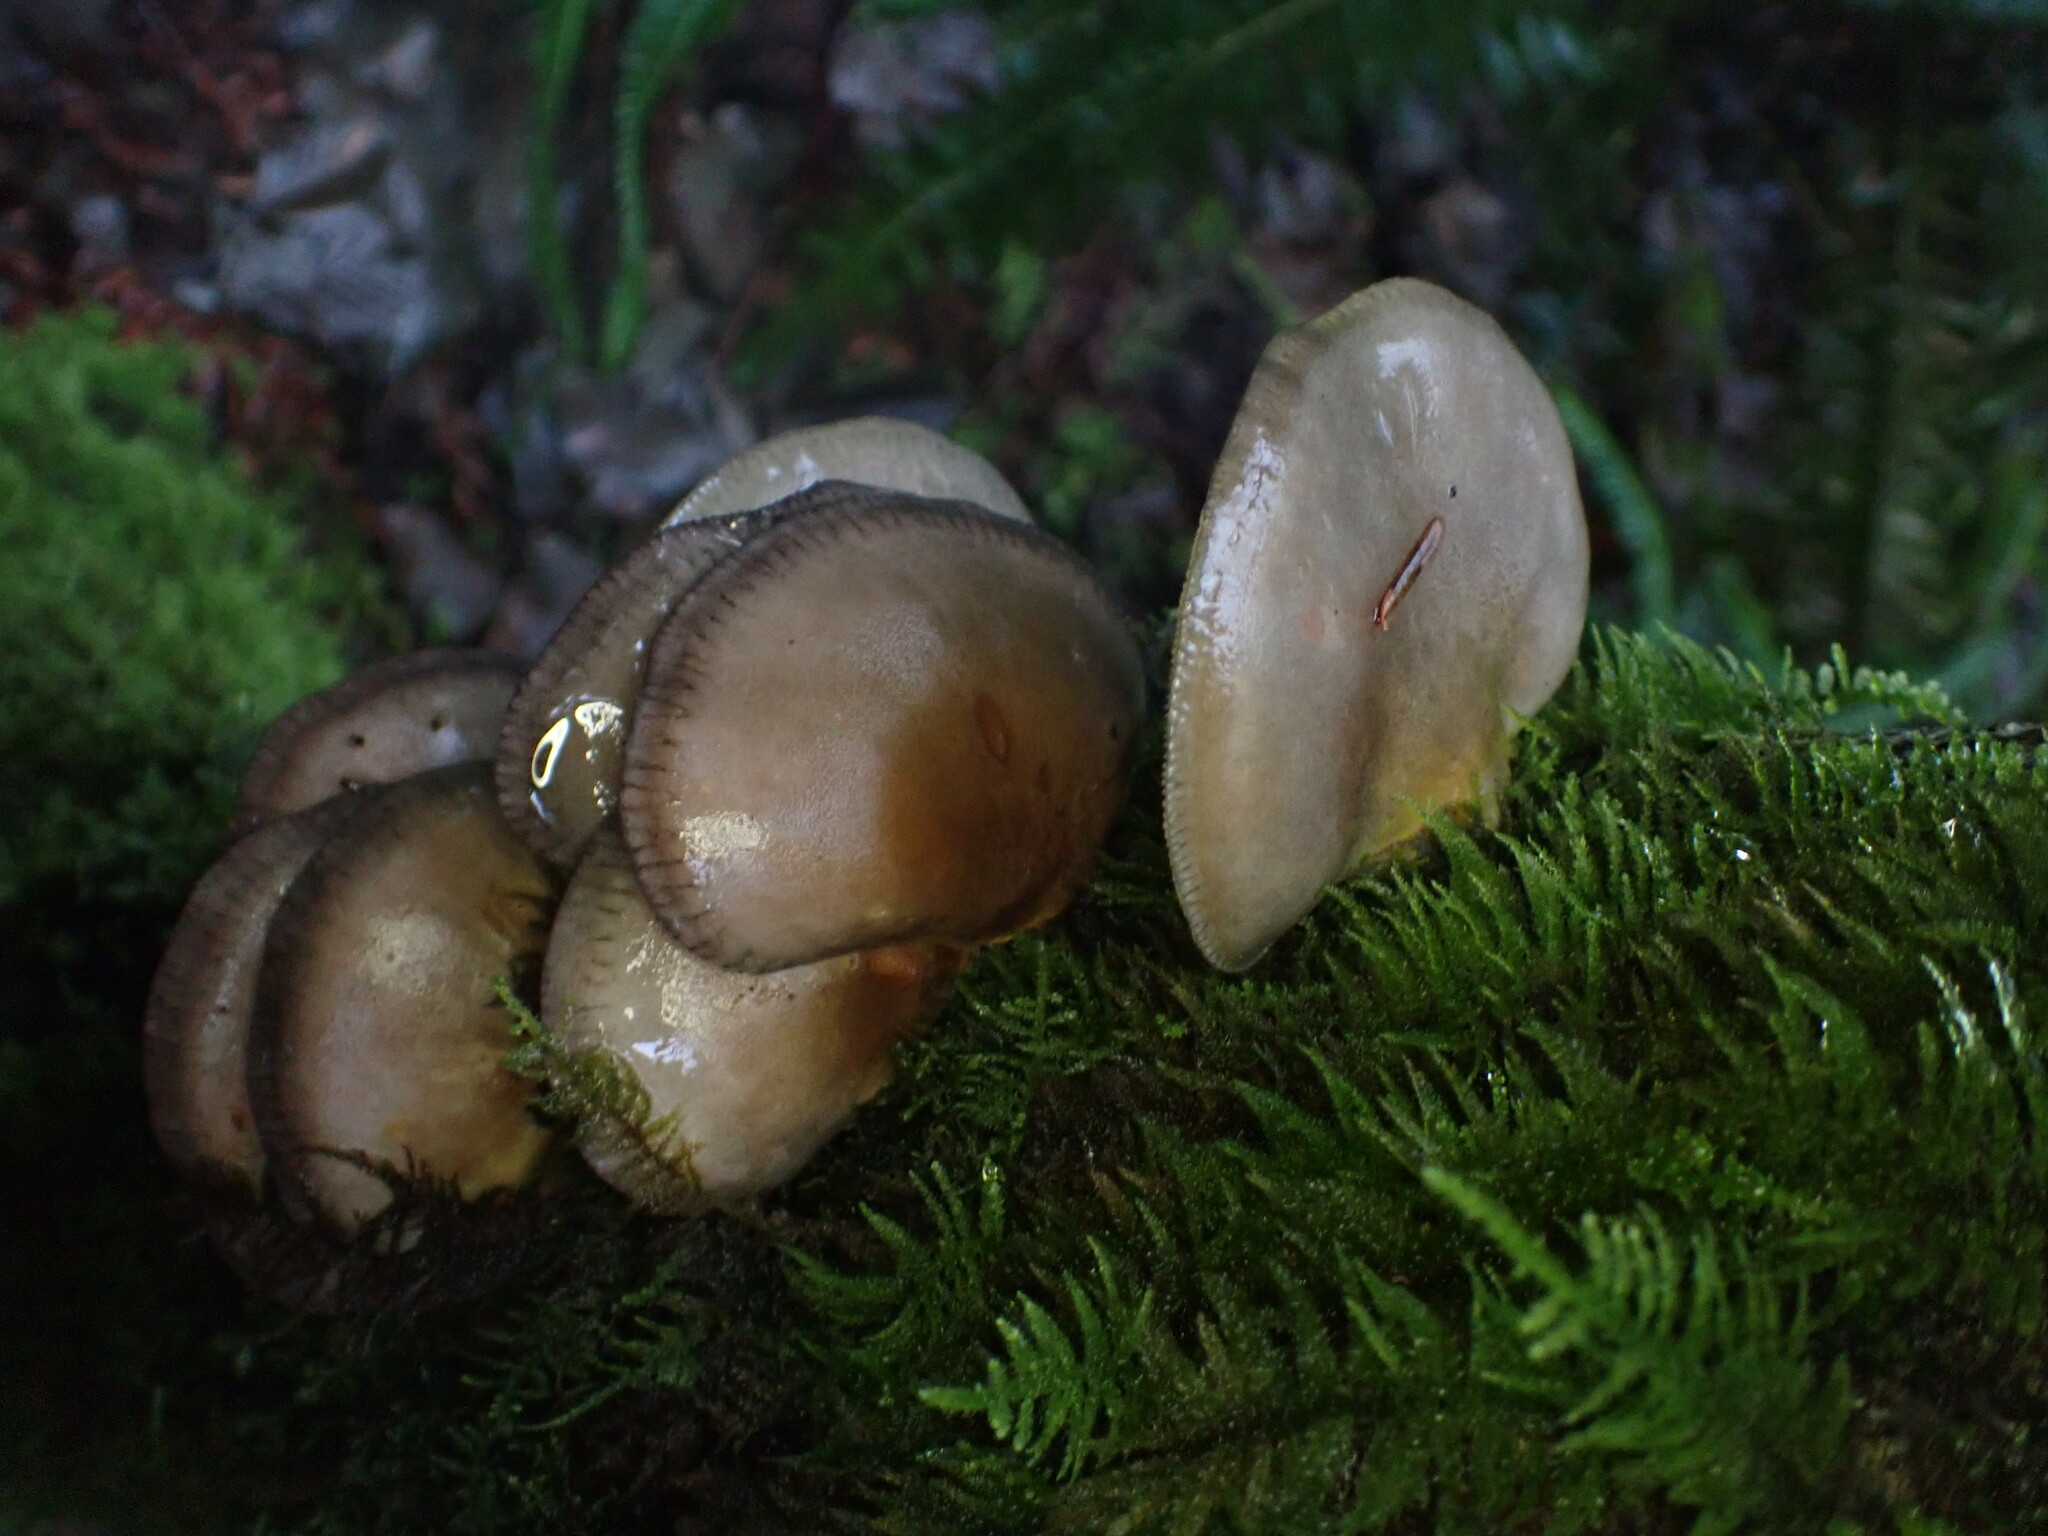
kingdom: Fungi
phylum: Basidiomycota
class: Agaricomycetes
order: Agaricales
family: Sarcomyxaceae
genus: Sarcomyxa
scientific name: Sarcomyxa serotina
